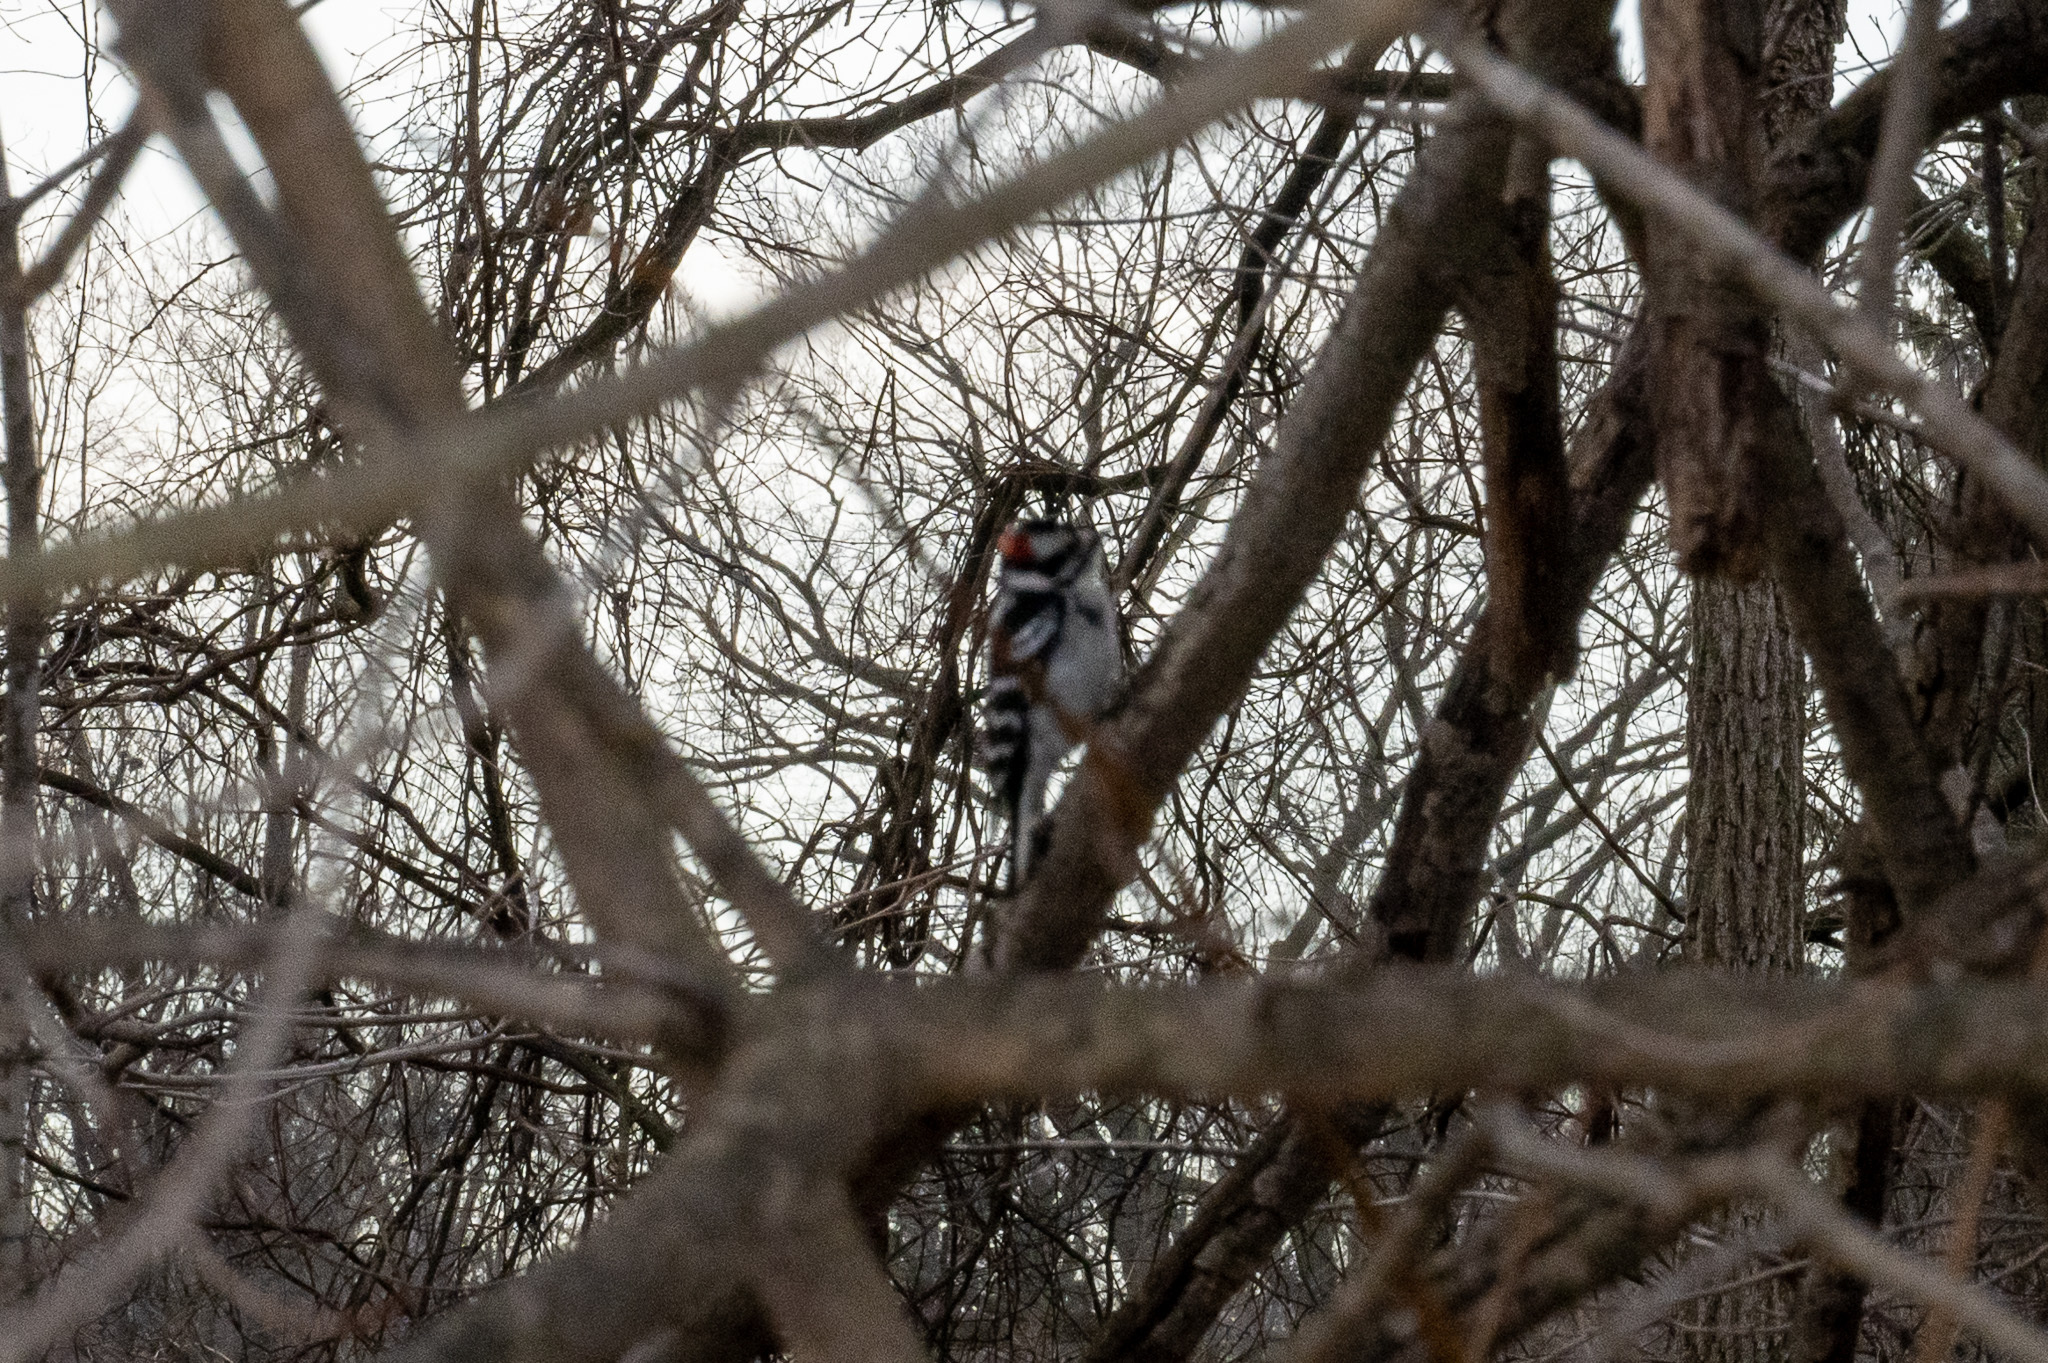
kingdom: Animalia
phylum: Chordata
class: Aves
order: Piciformes
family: Picidae
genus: Dryobates
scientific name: Dryobates pubescens
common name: Downy woodpecker
